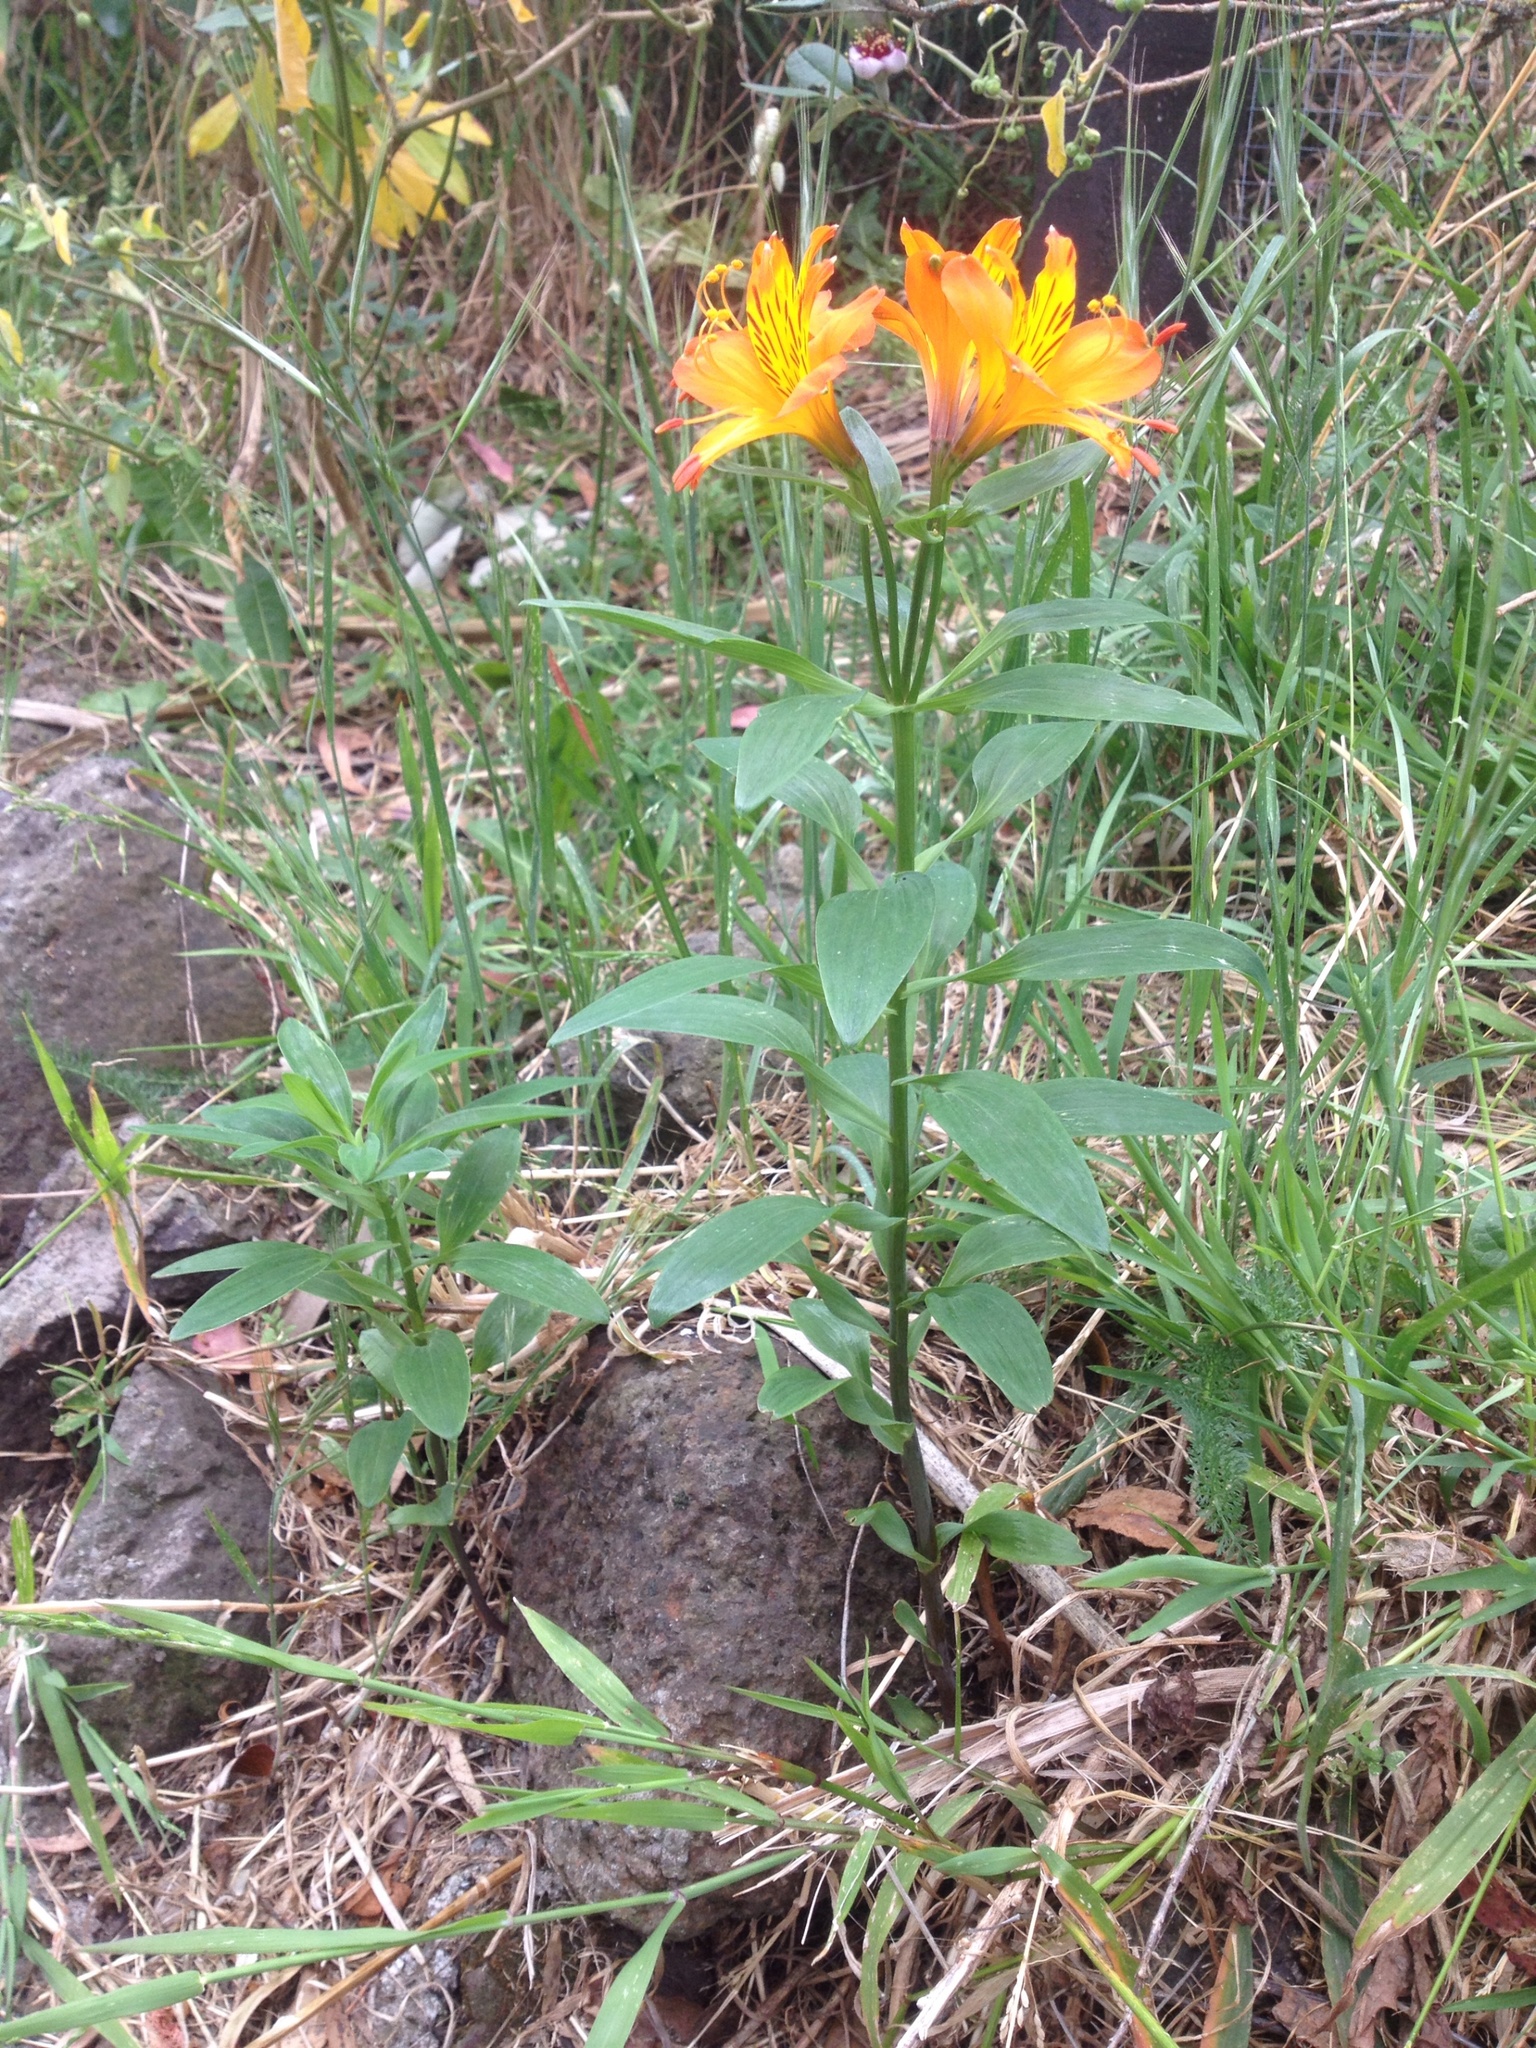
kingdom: Plantae
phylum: Tracheophyta
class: Liliopsida
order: Liliales
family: Alstroemeriaceae
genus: Alstroemeria
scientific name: Alstroemeria aurea
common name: Peruvian lily
